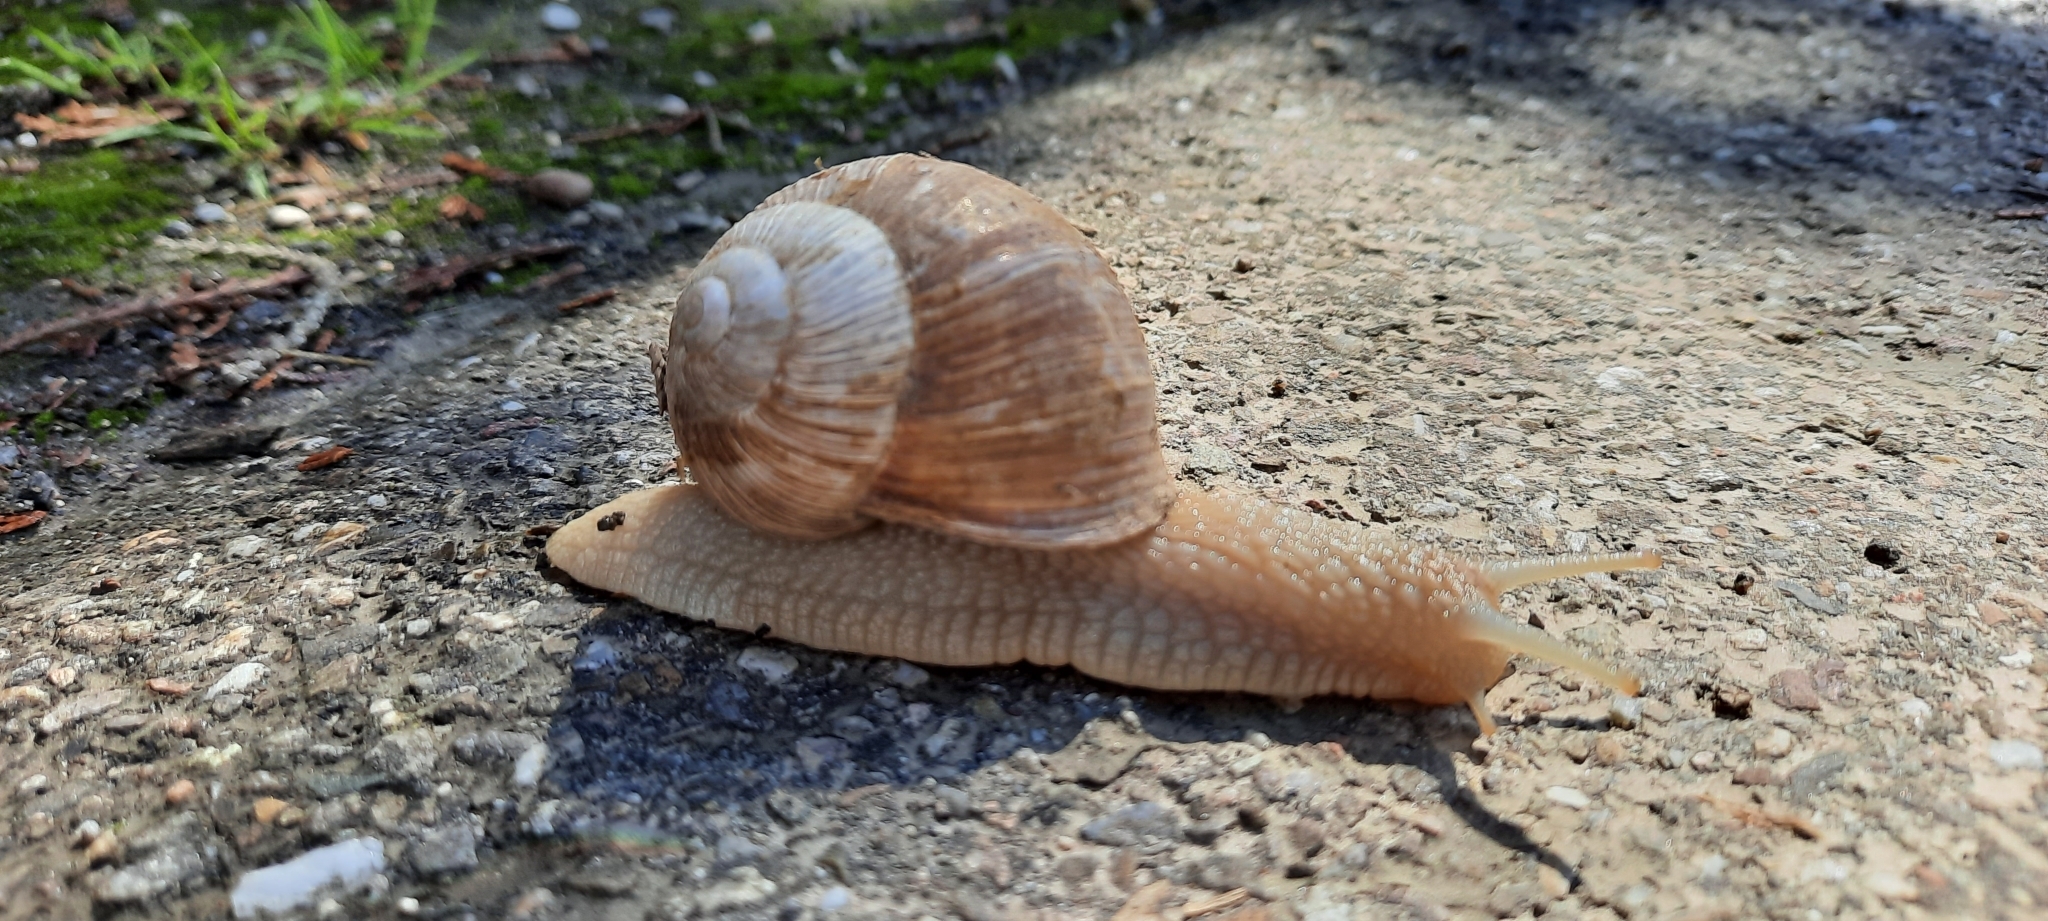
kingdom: Animalia
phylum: Mollusca
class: Gastropoda
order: Stylommatophora
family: Helicidae
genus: Helix
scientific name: Helix pomatia
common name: Roman snail
